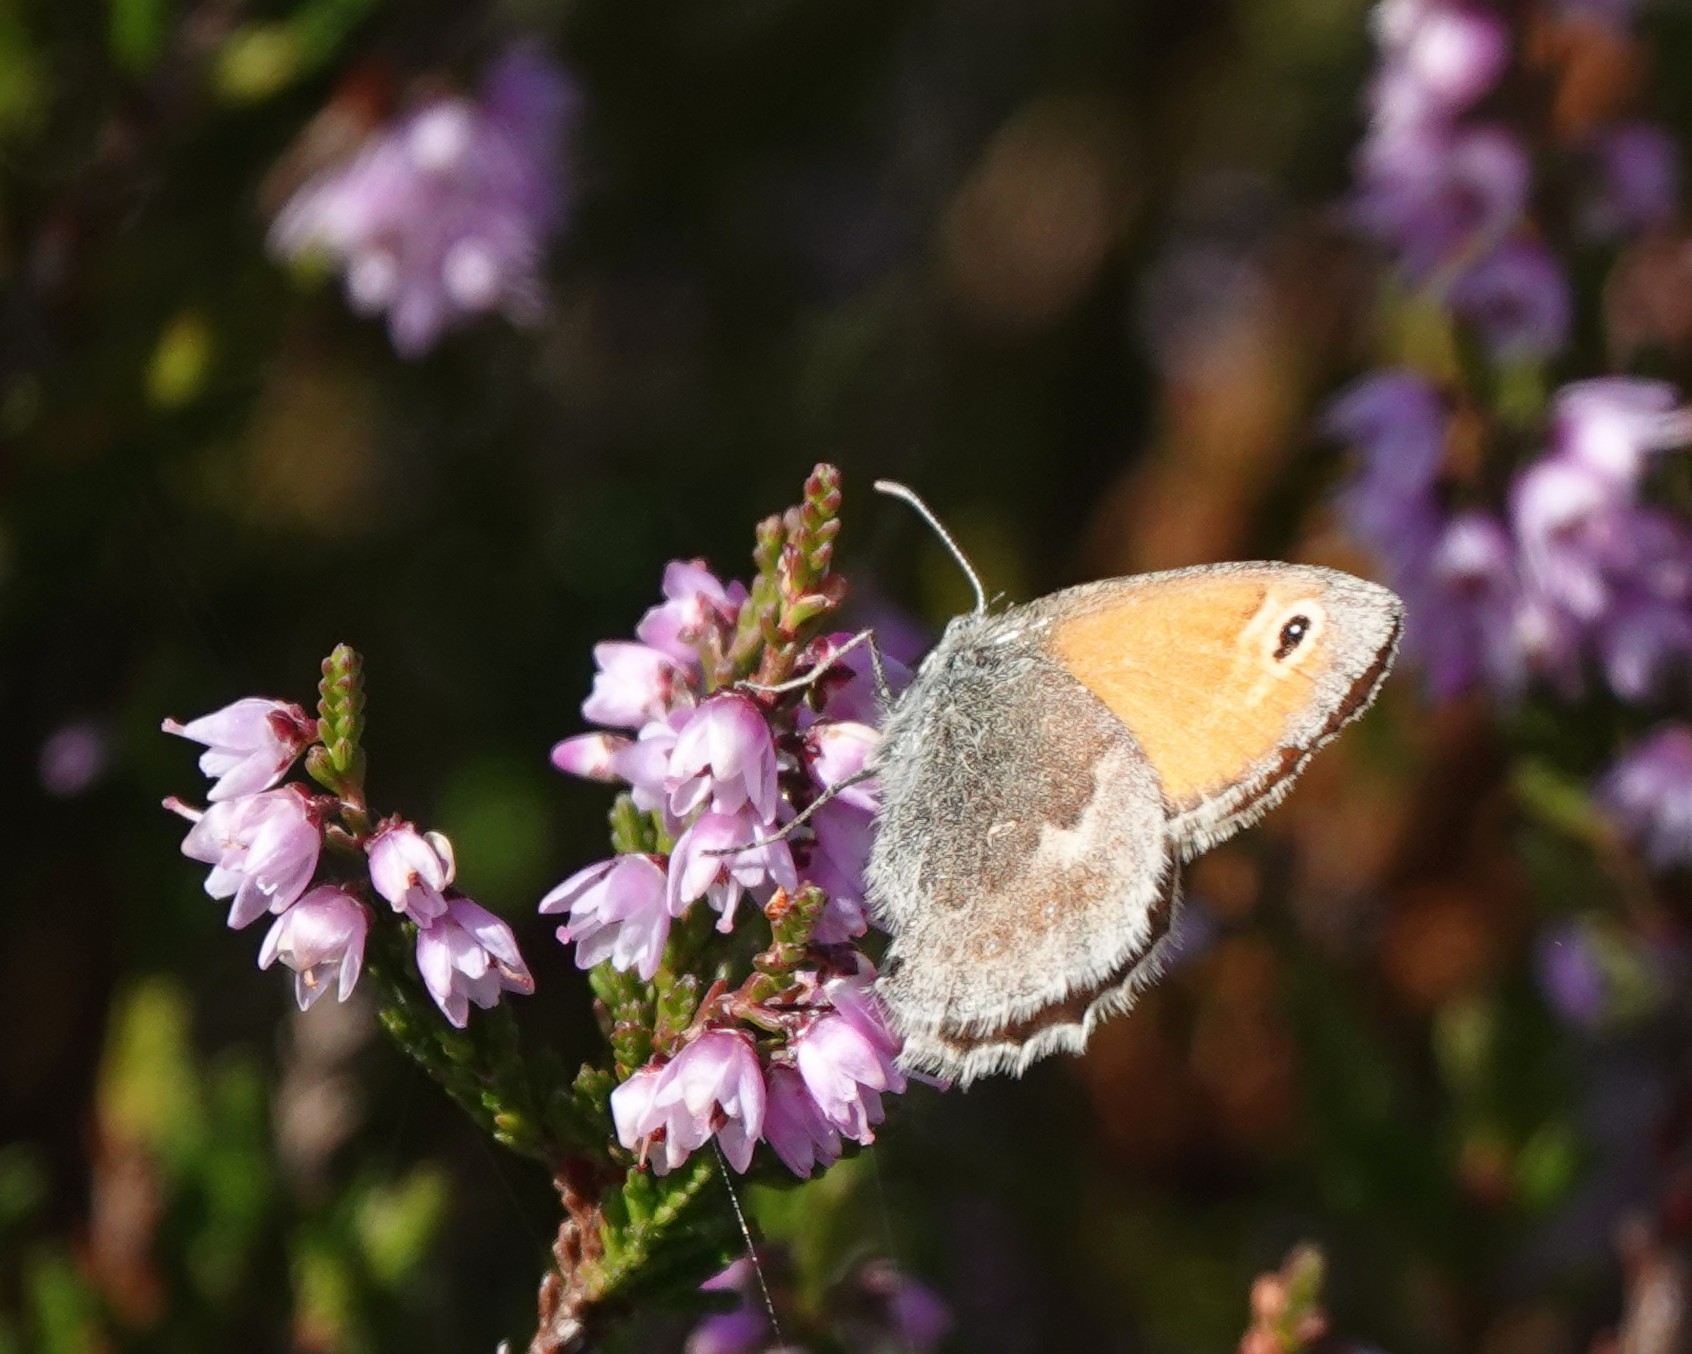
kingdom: Animalia
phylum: Arthropoda
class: Insecta
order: Lepidoptera
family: Nymphalidae
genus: Coenonympha
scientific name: Coenonympha pamphilus
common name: Small heath
